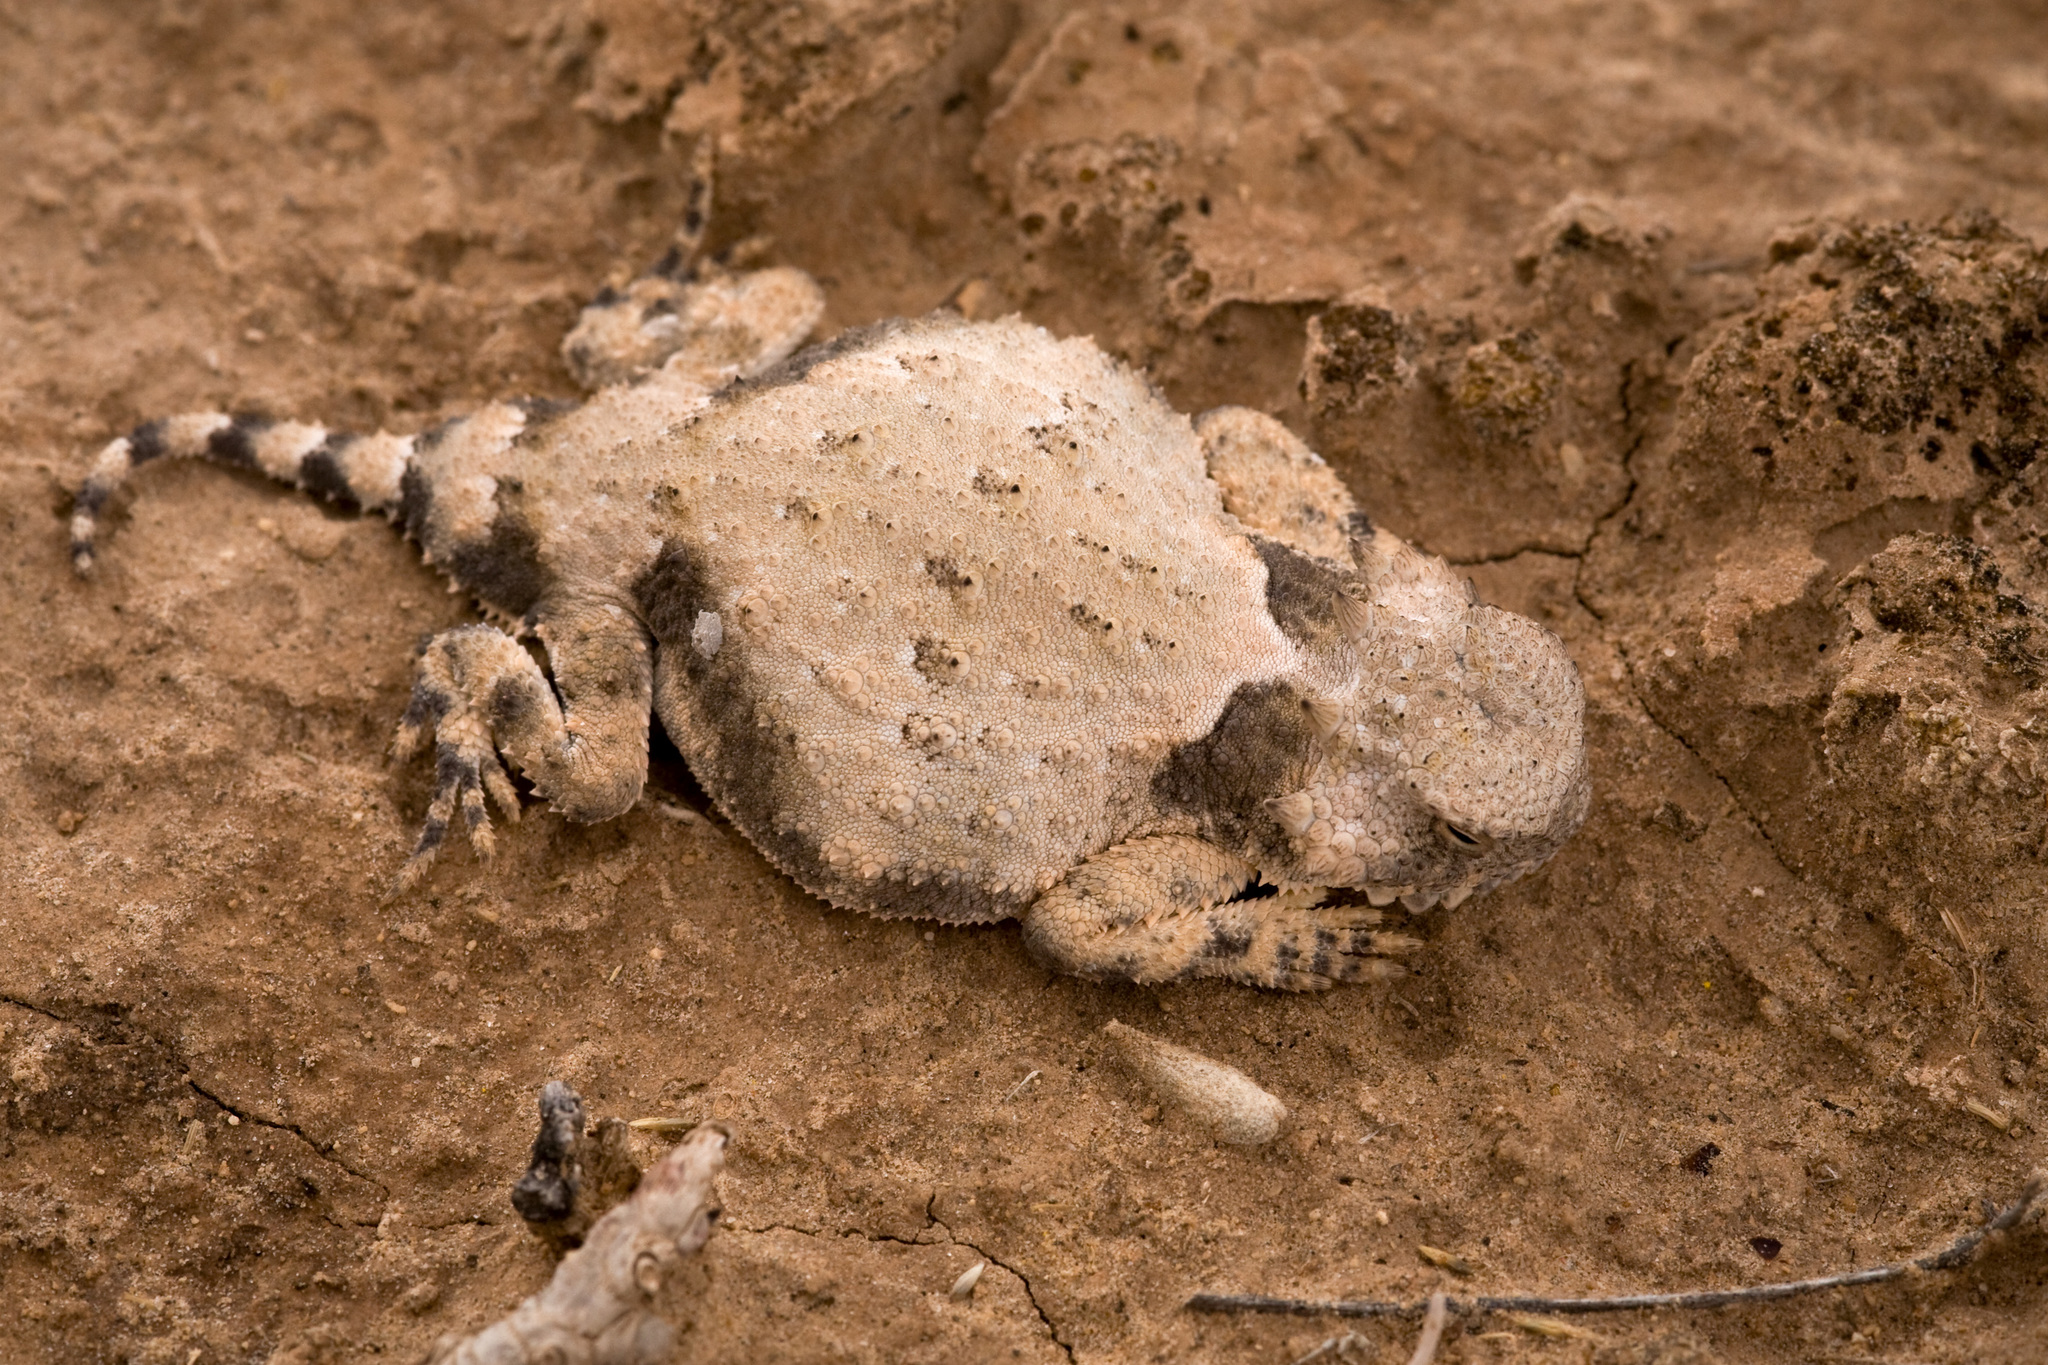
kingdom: Animalia
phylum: Chordata
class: Squamata
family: Phrynosomatidae
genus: Phrynosoma
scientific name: Phrynosoma modestum
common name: Roundtail horned lizard
